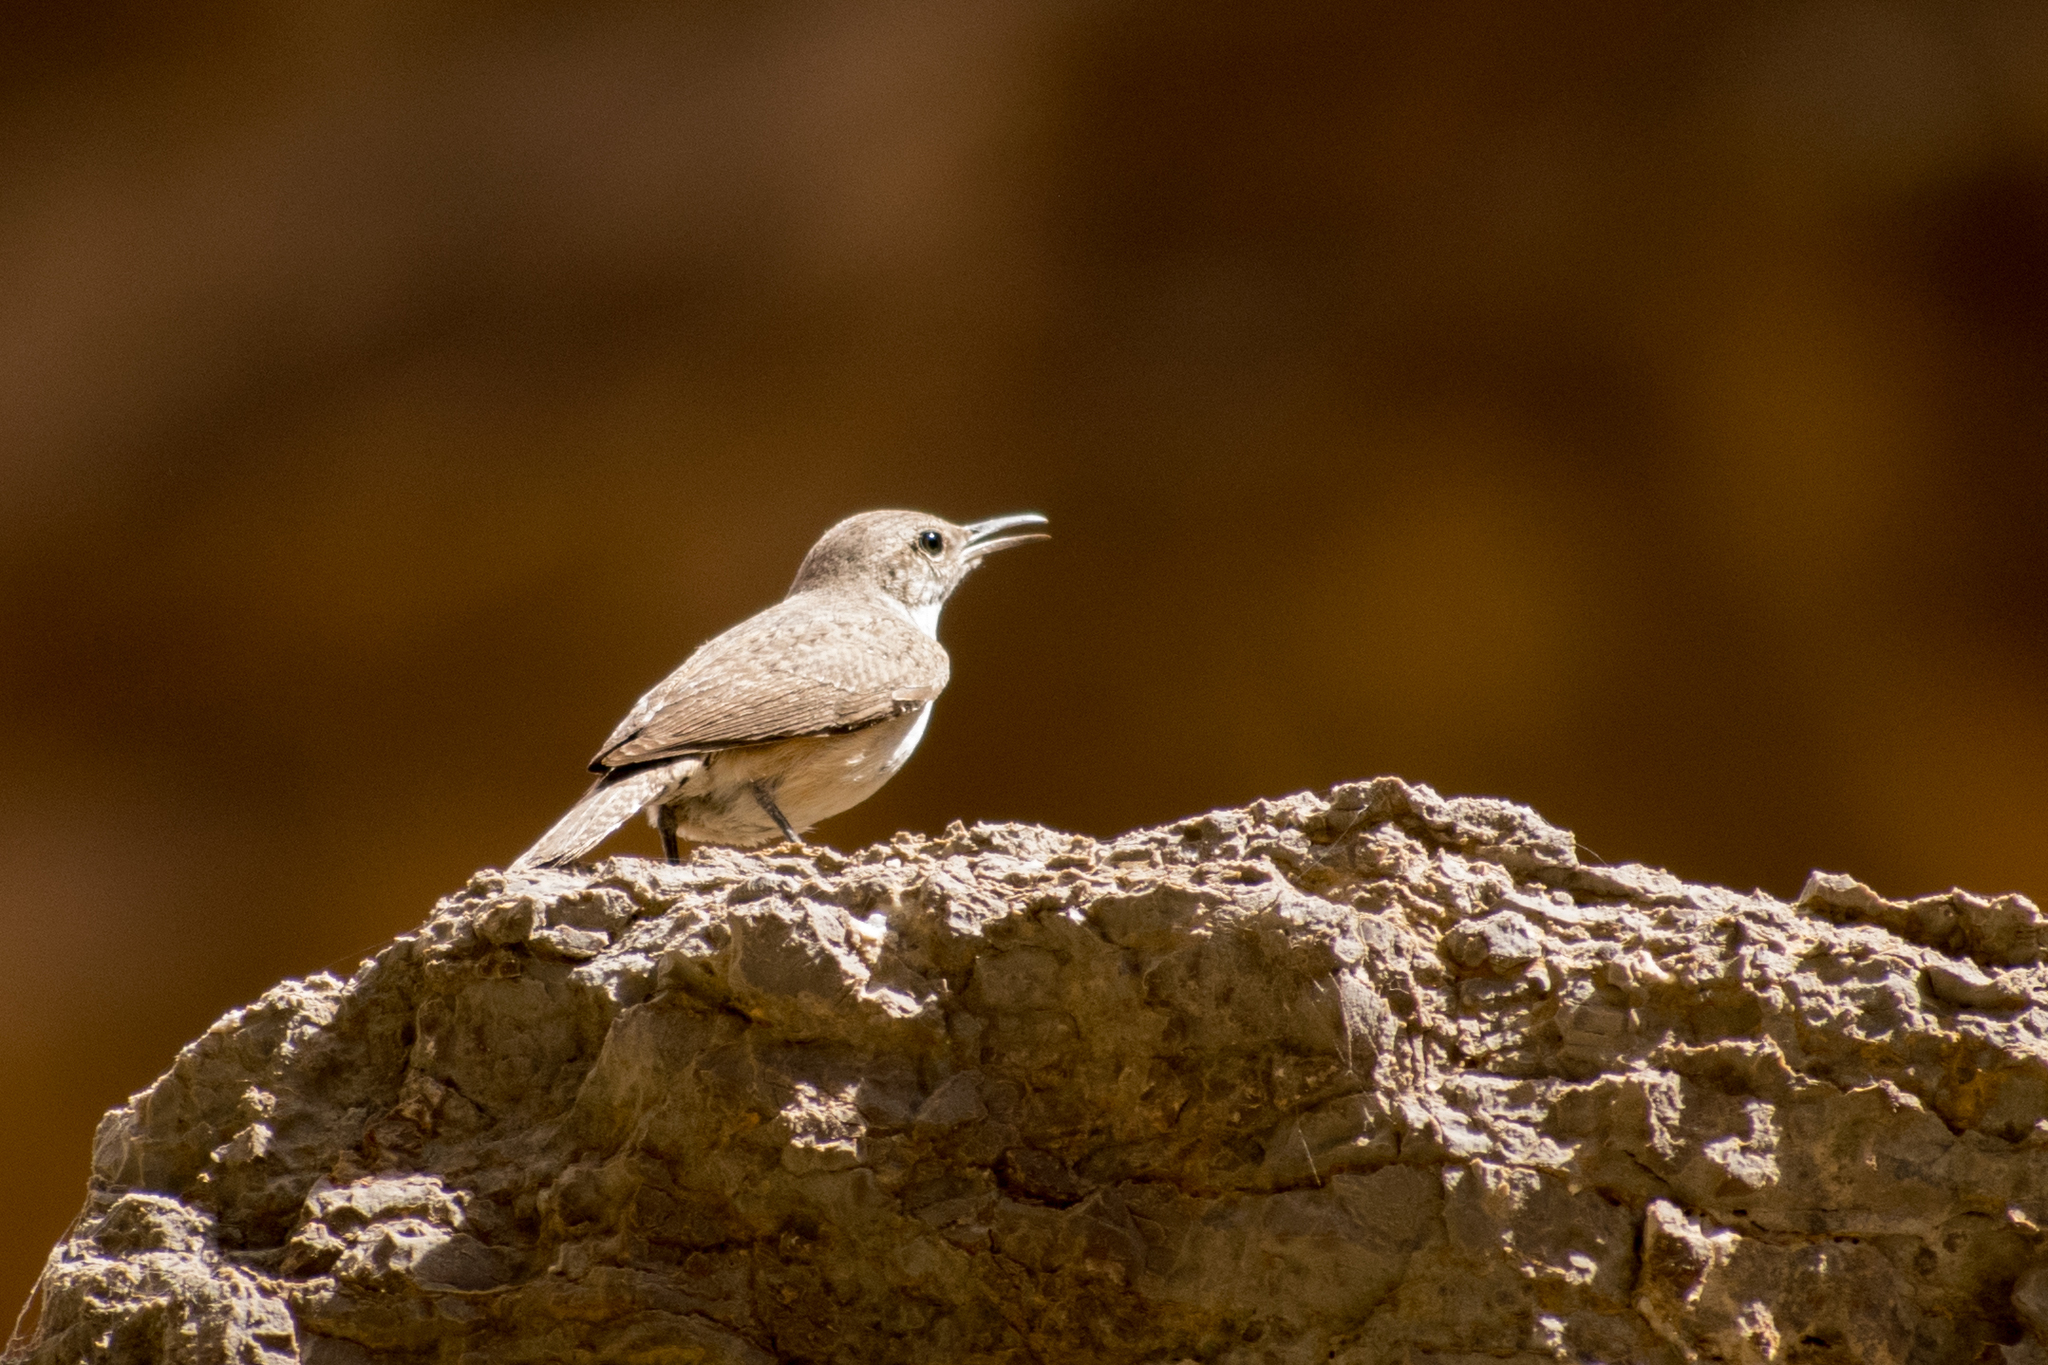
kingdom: Animalia
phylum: Chordata
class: Aves
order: Passeriformes
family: Troglodytidae
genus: Salpinctes
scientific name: Salpinctes obsoletus
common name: Rock wren
